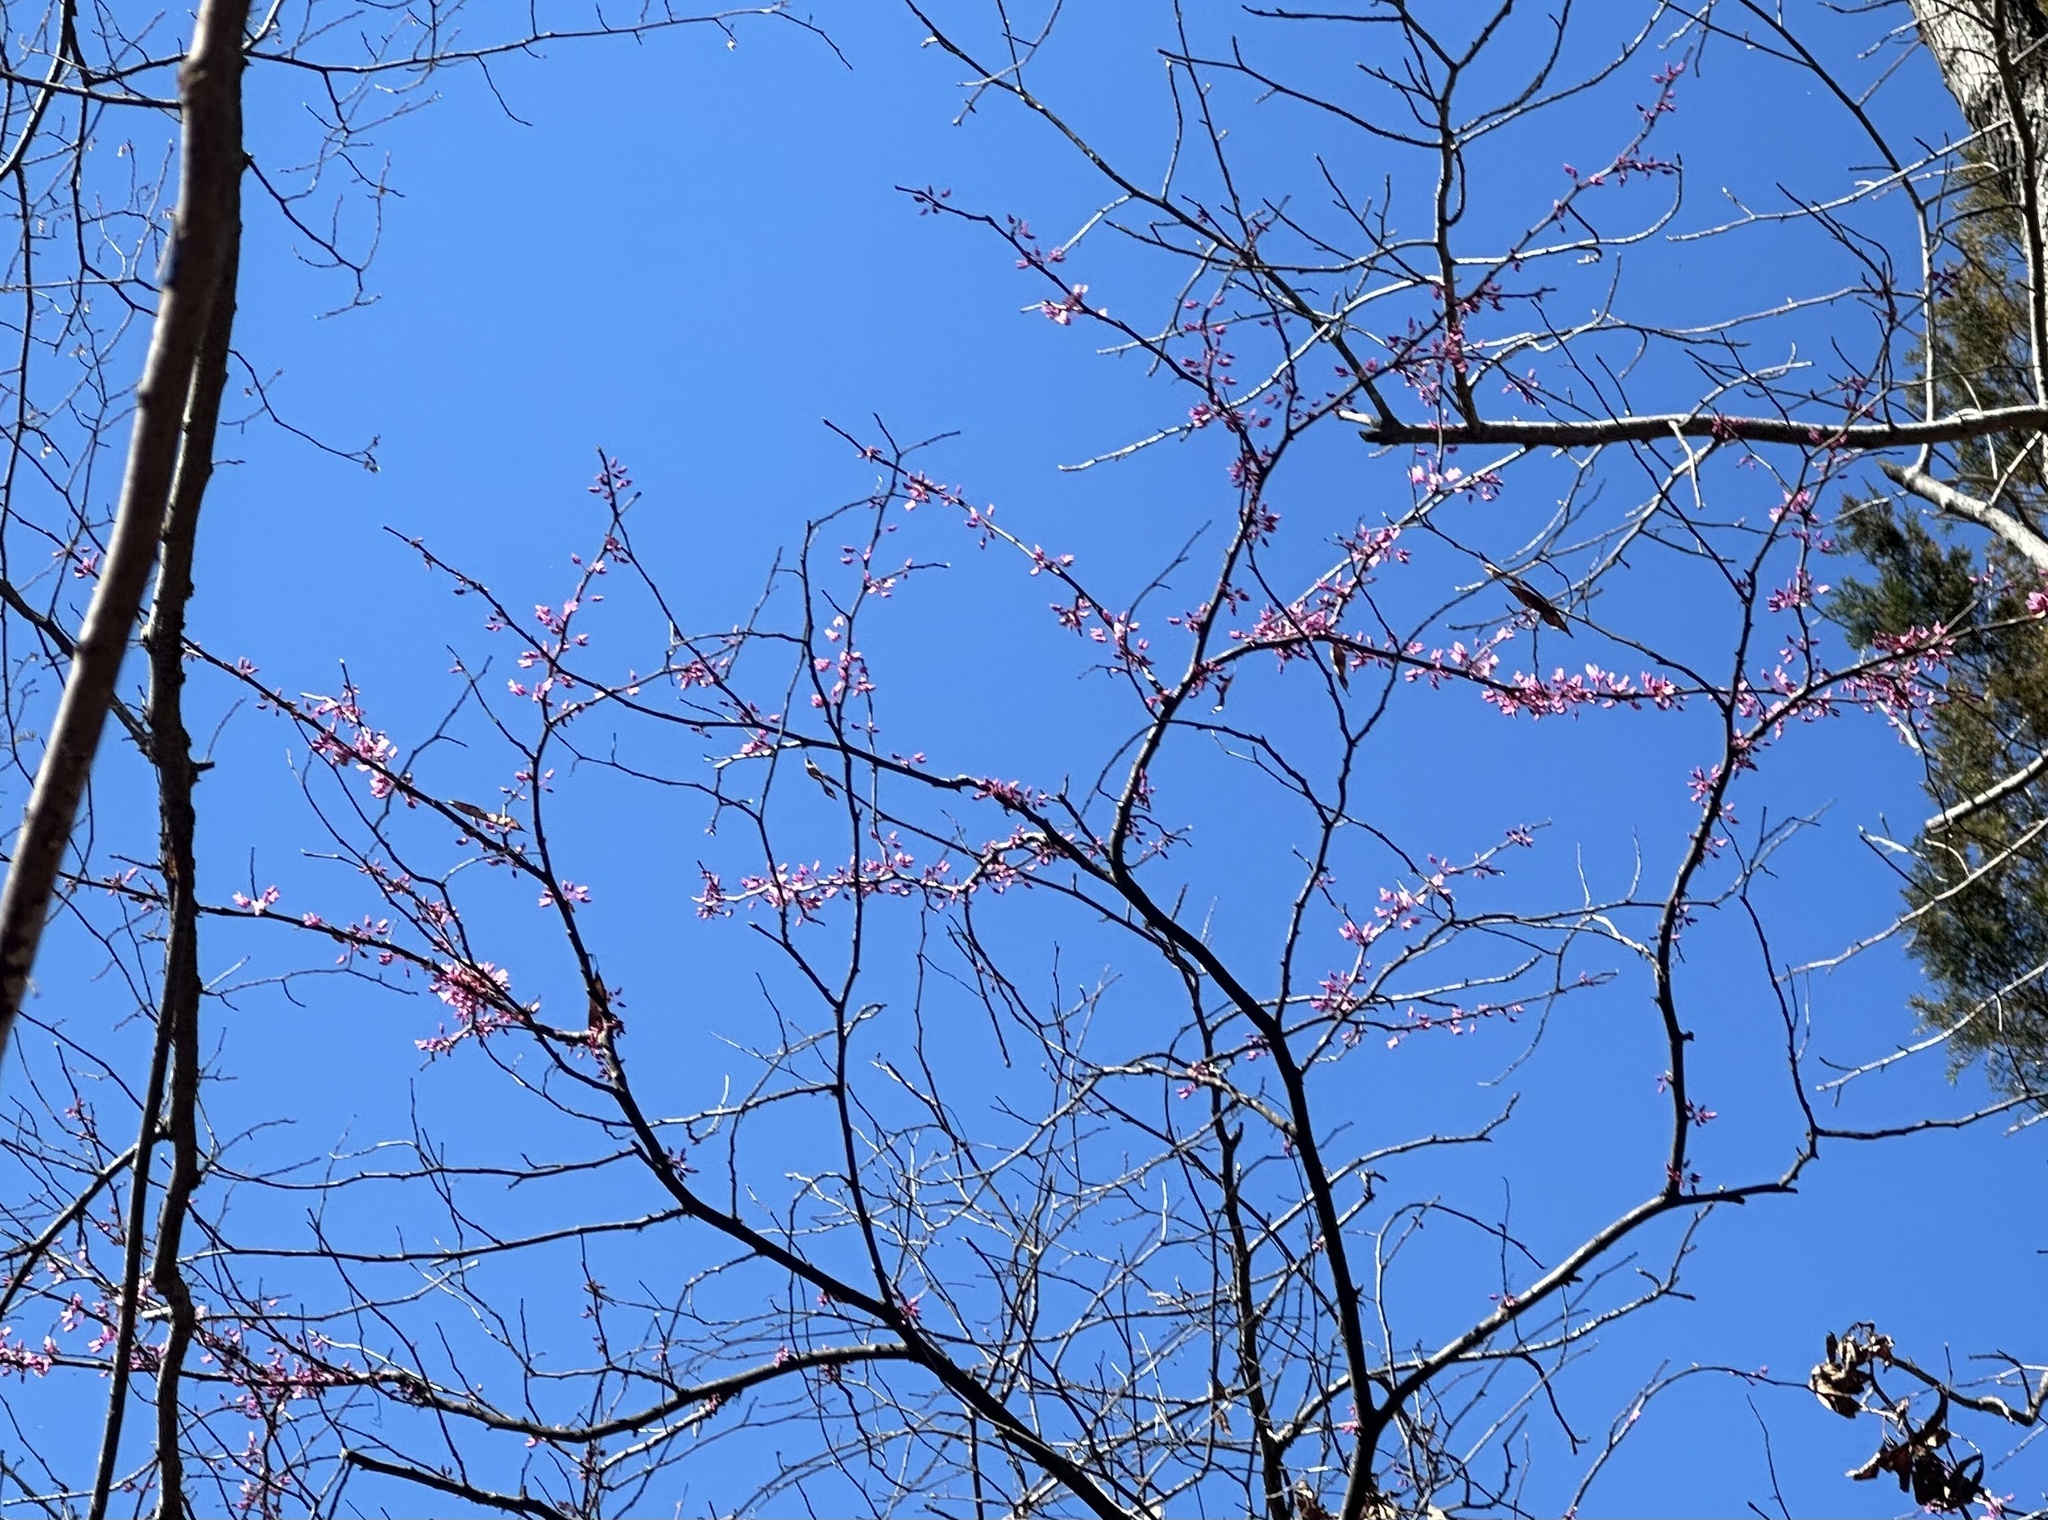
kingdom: Plantae
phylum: Tracheophyta
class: Magnoliopsida
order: Fabales
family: Fabaceae
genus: Cercis
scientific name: Cercis canadensis
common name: Eastern redbud
